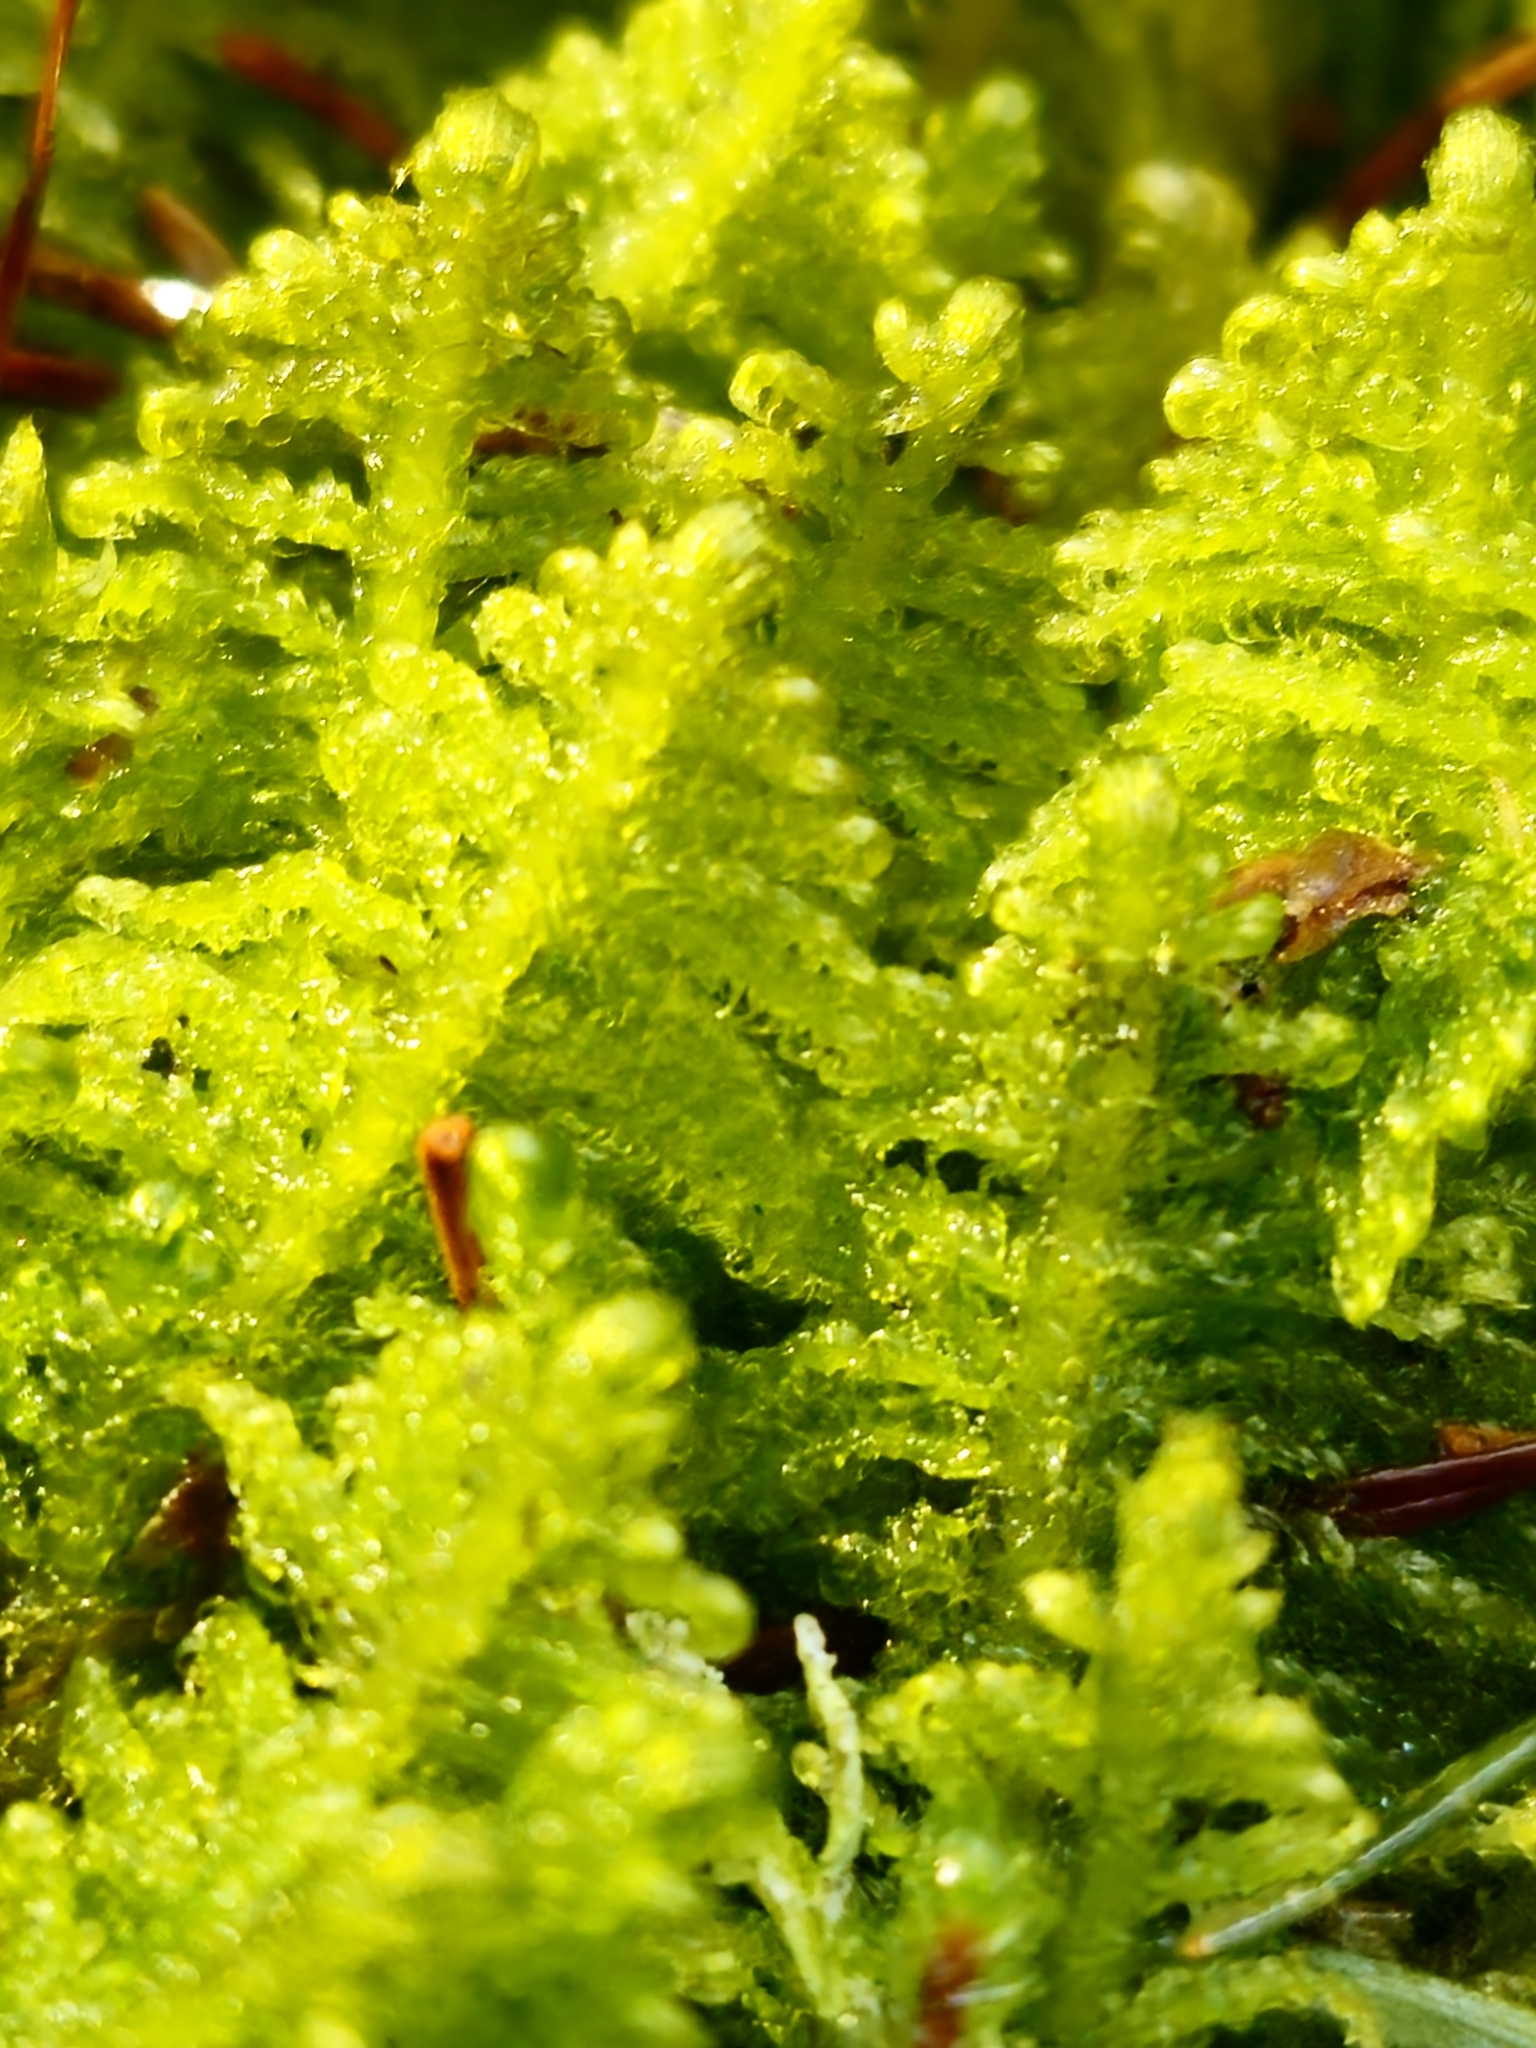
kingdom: Plantae
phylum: Bryophyta
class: Bryopsida
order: Hypnales
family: Pylaisiaceae
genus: Ptilium
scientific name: Ptilium crista-castrensis
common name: Knight's plume moss
